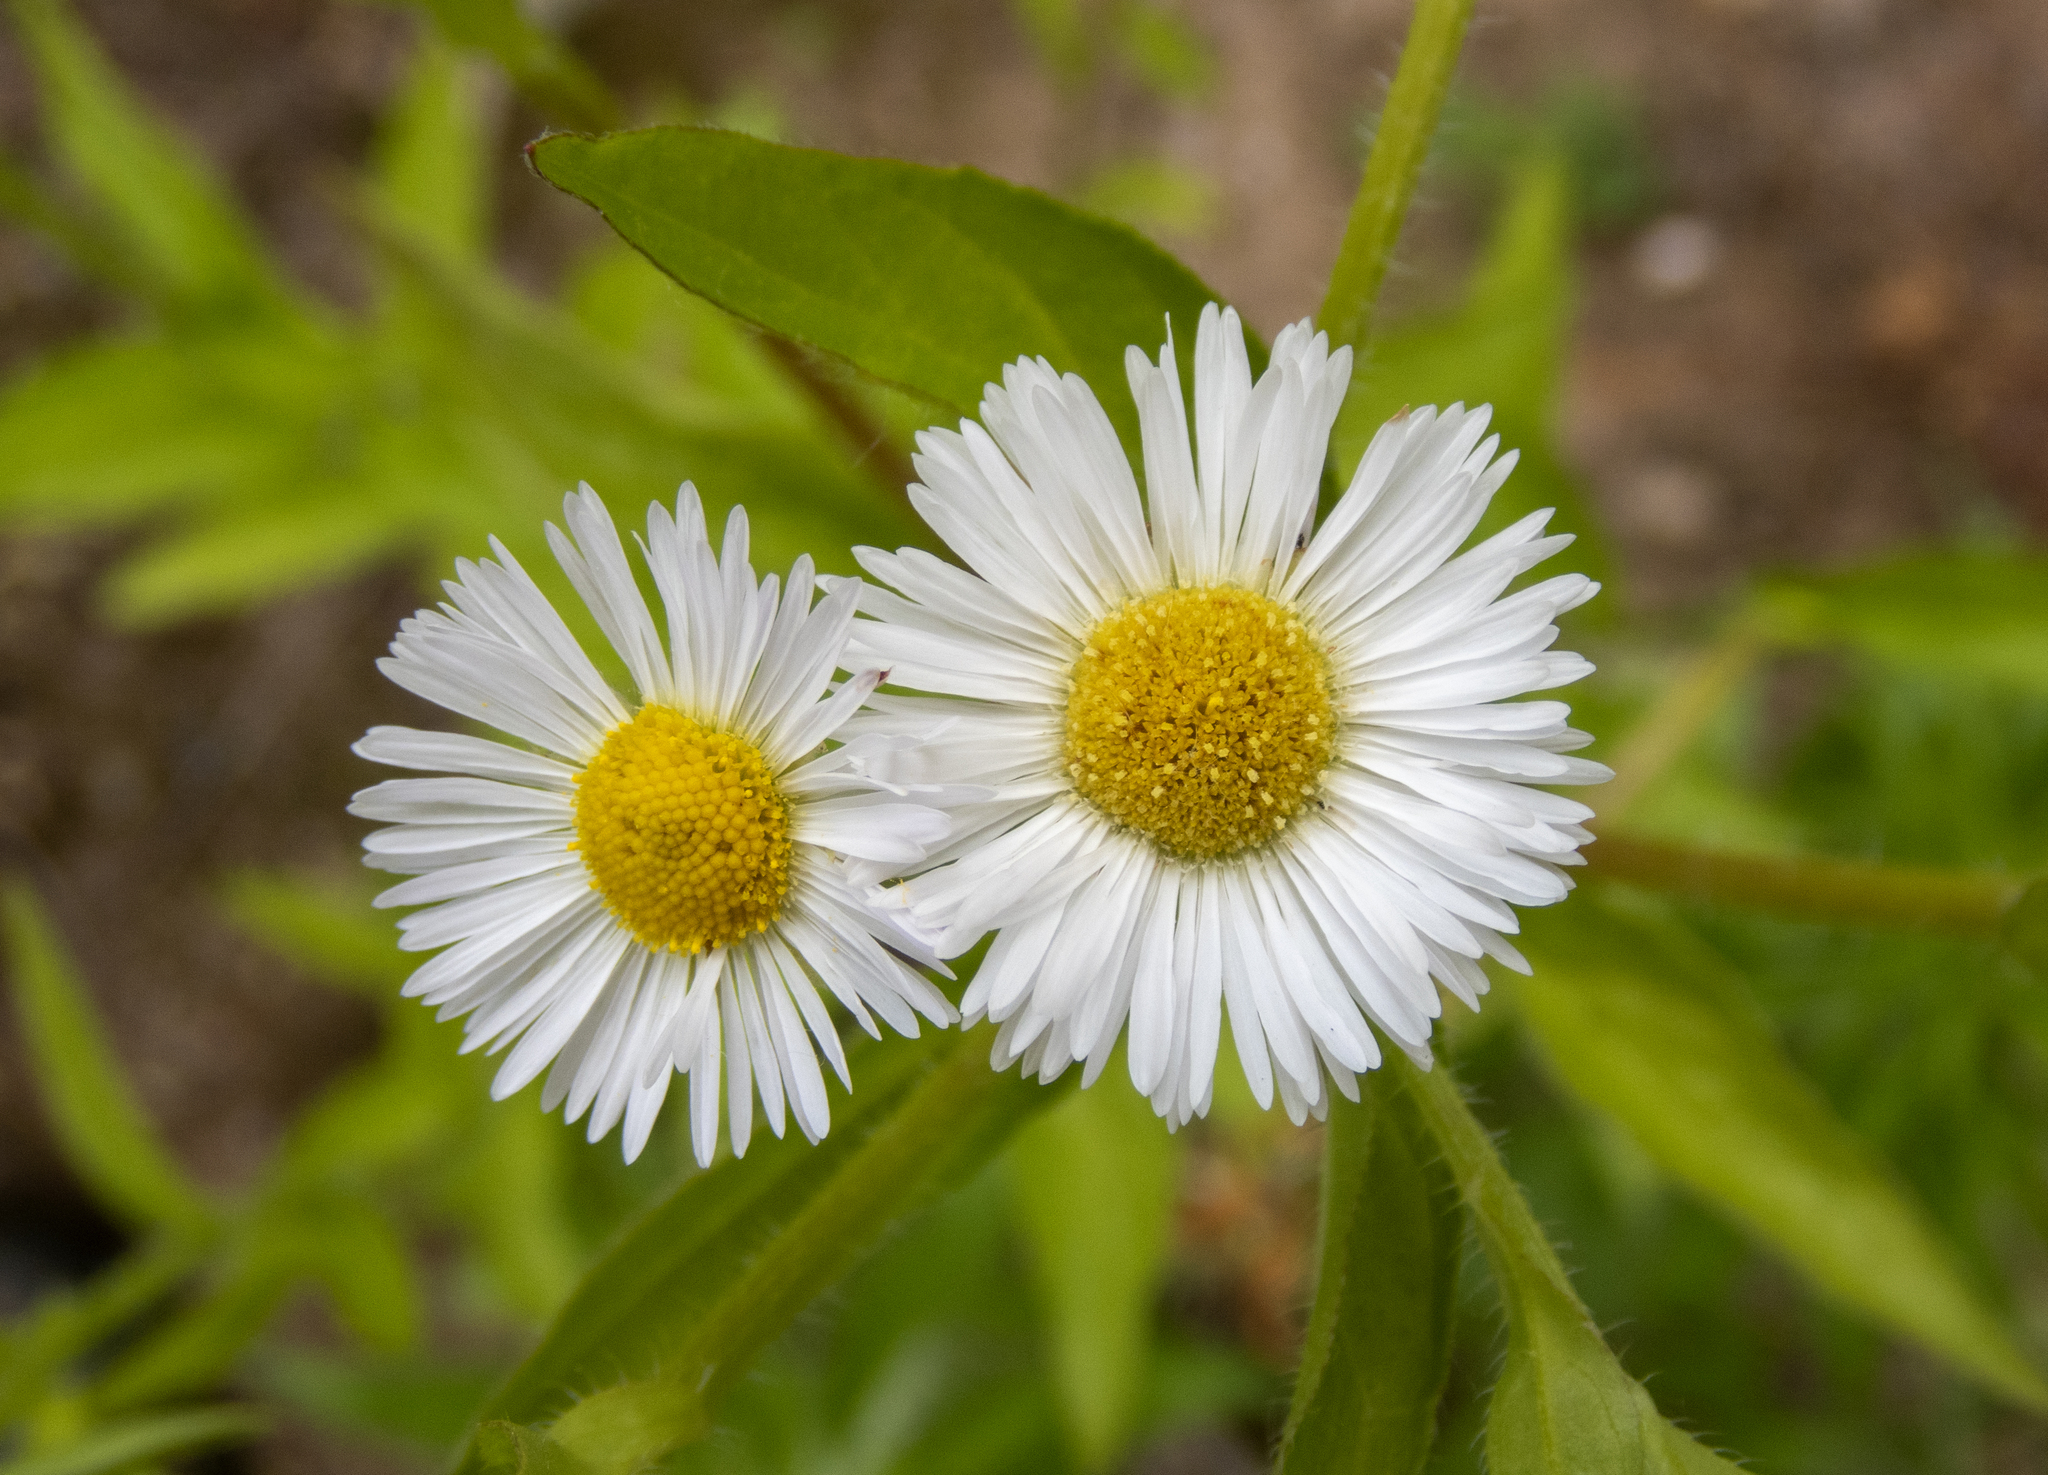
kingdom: Plantae
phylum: Tracheophyta
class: Magnoliopsida
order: Asterales
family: Asteraceae
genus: Erigeron
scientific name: Erigeron annuus
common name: Tall fleabane
